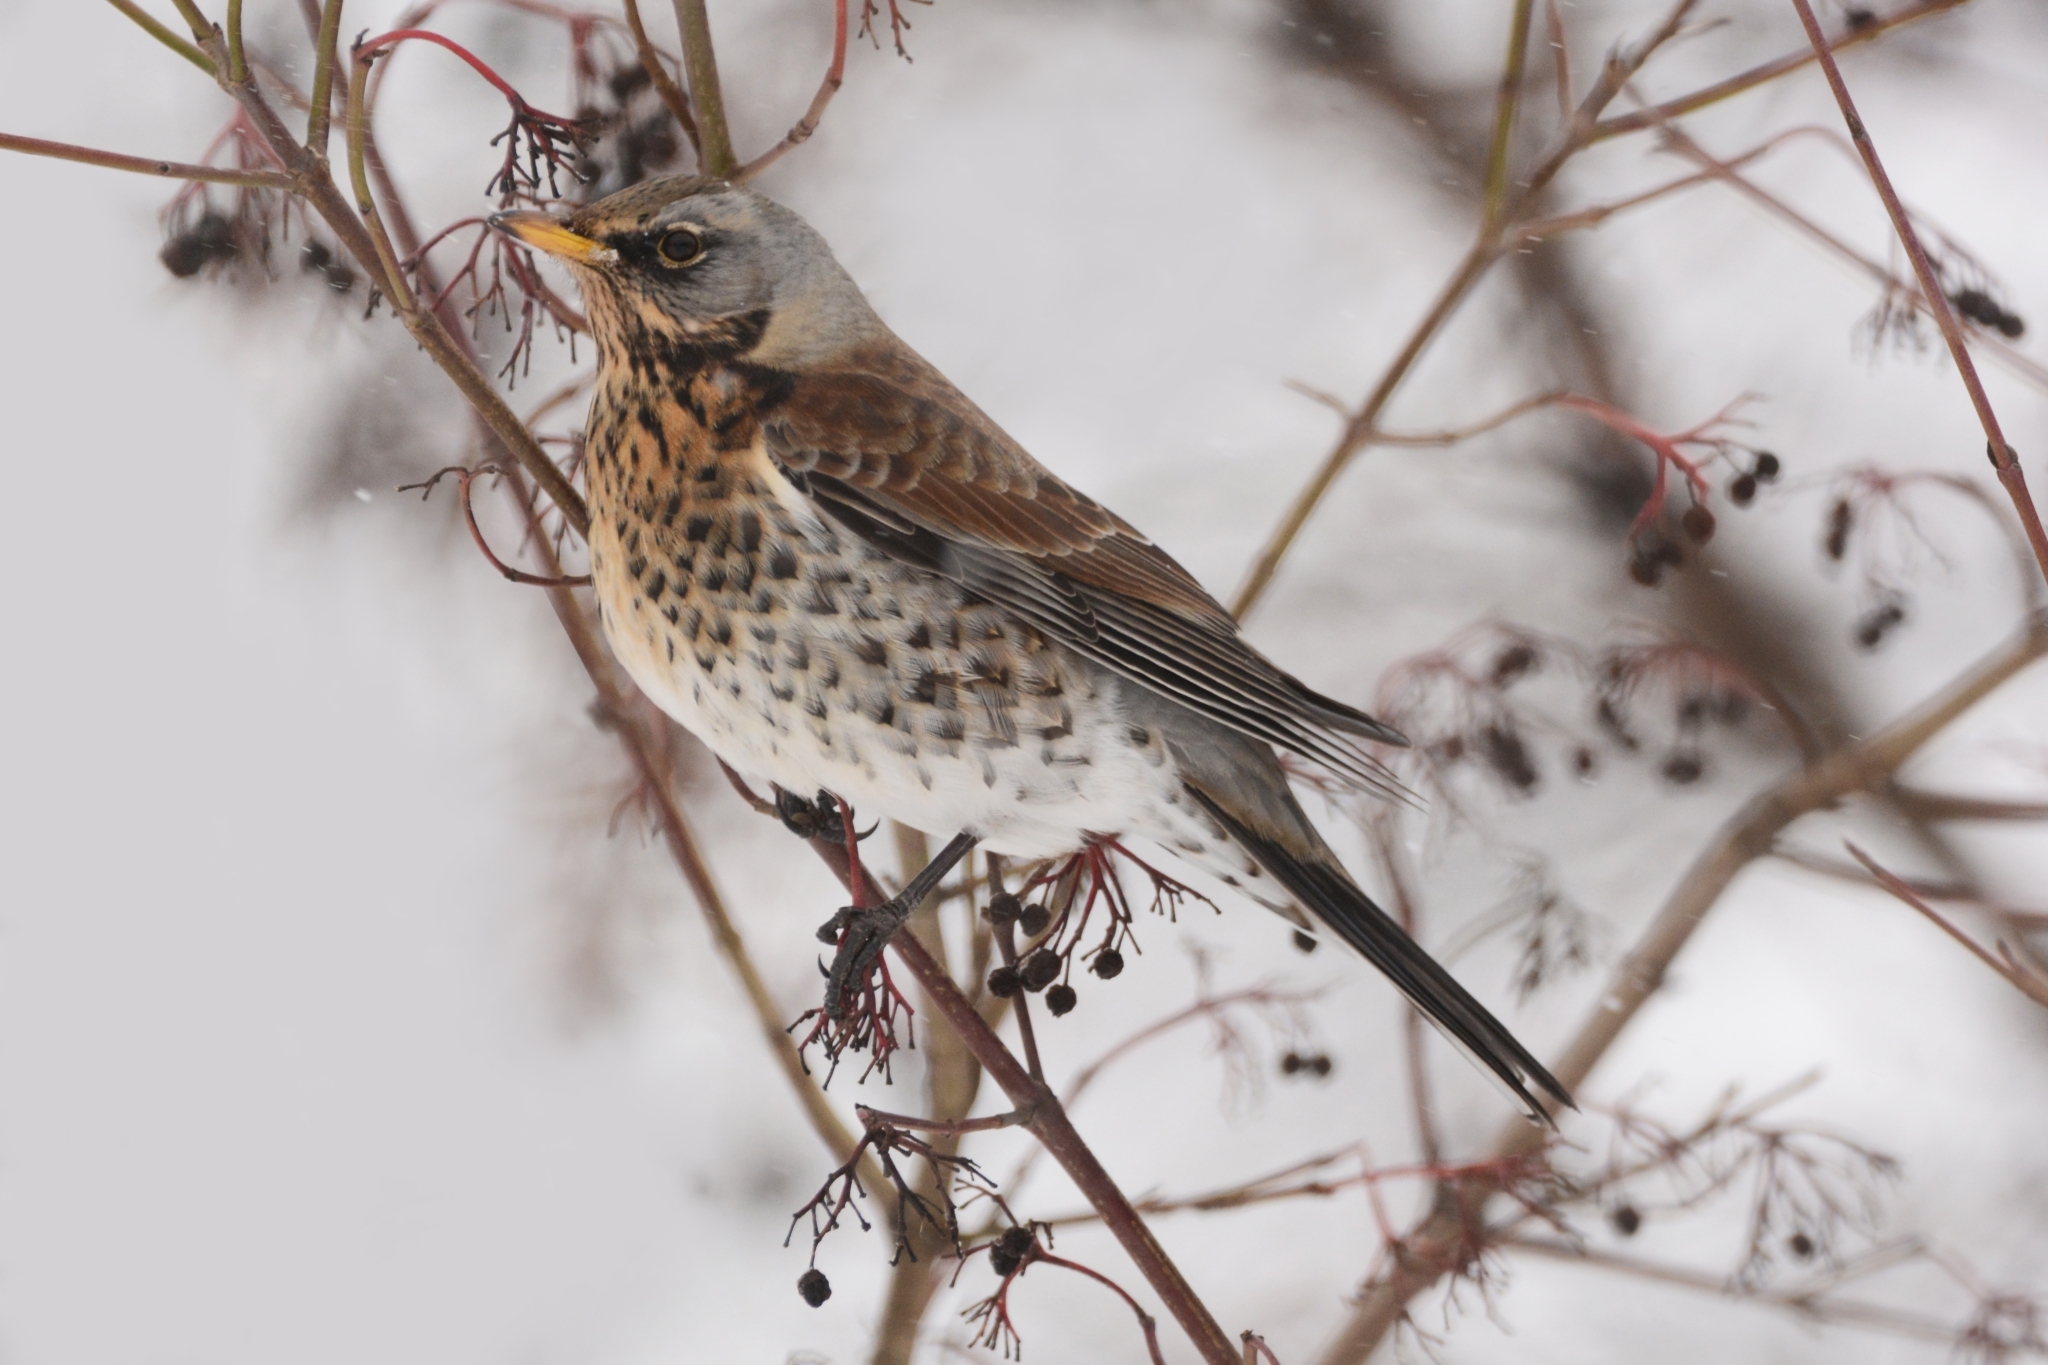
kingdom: Animalia
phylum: Chordata
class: Aves
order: Passeriformes
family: Turdidae
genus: Turdus
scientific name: Turdus pilaris
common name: Fieldfare
